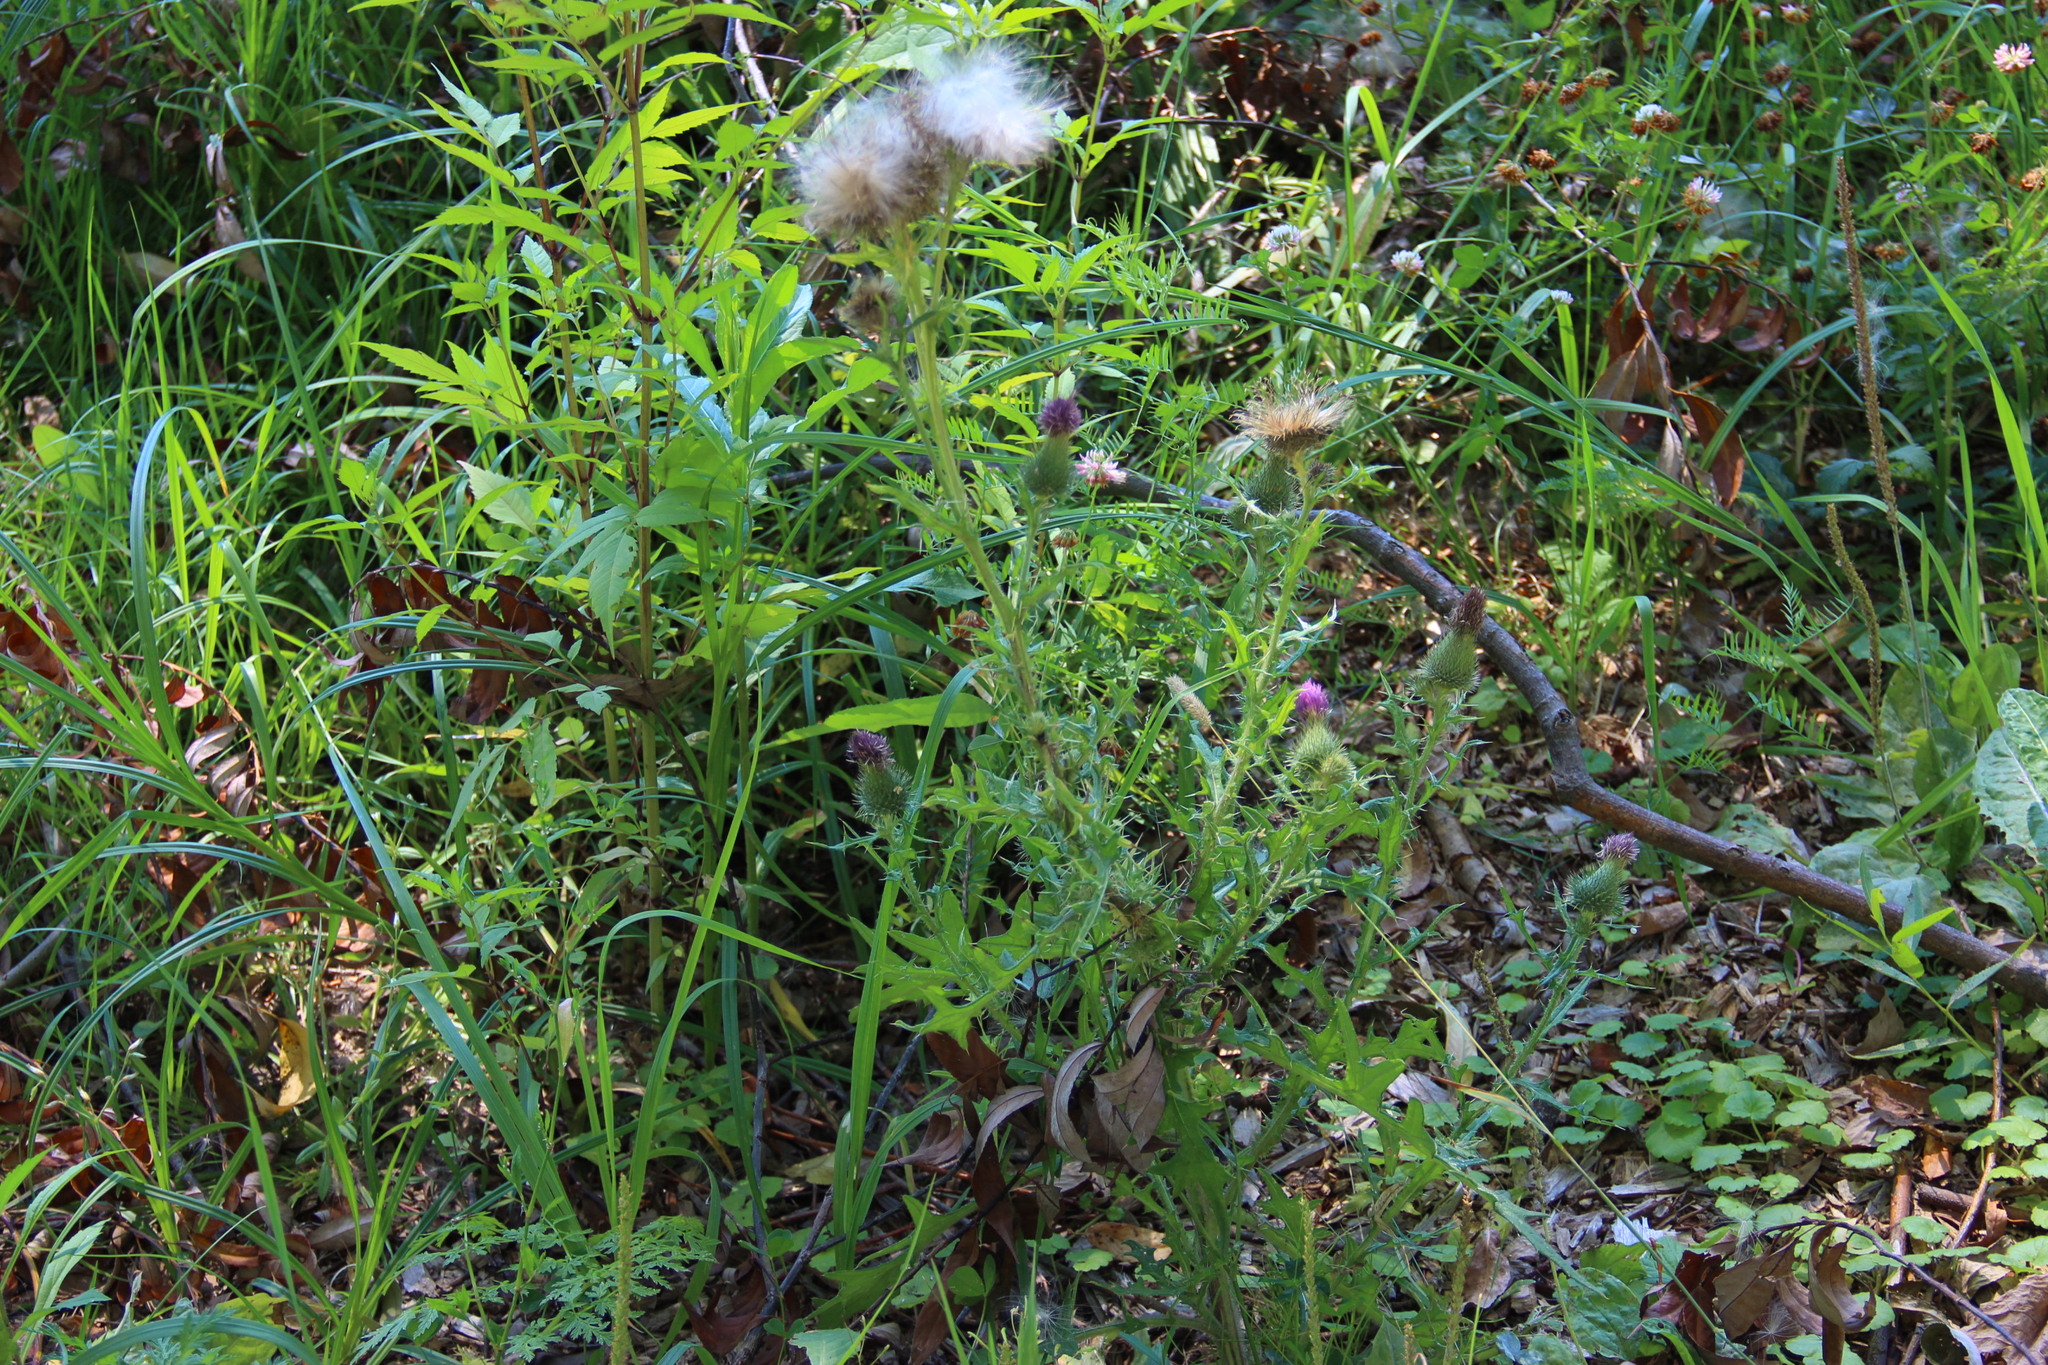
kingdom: Plantae
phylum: Tracheophyta
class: Magnoliopsida
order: Asterales
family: Asteraceae
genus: Cirsium
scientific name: Cirsium vulgare
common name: Bull thistle
